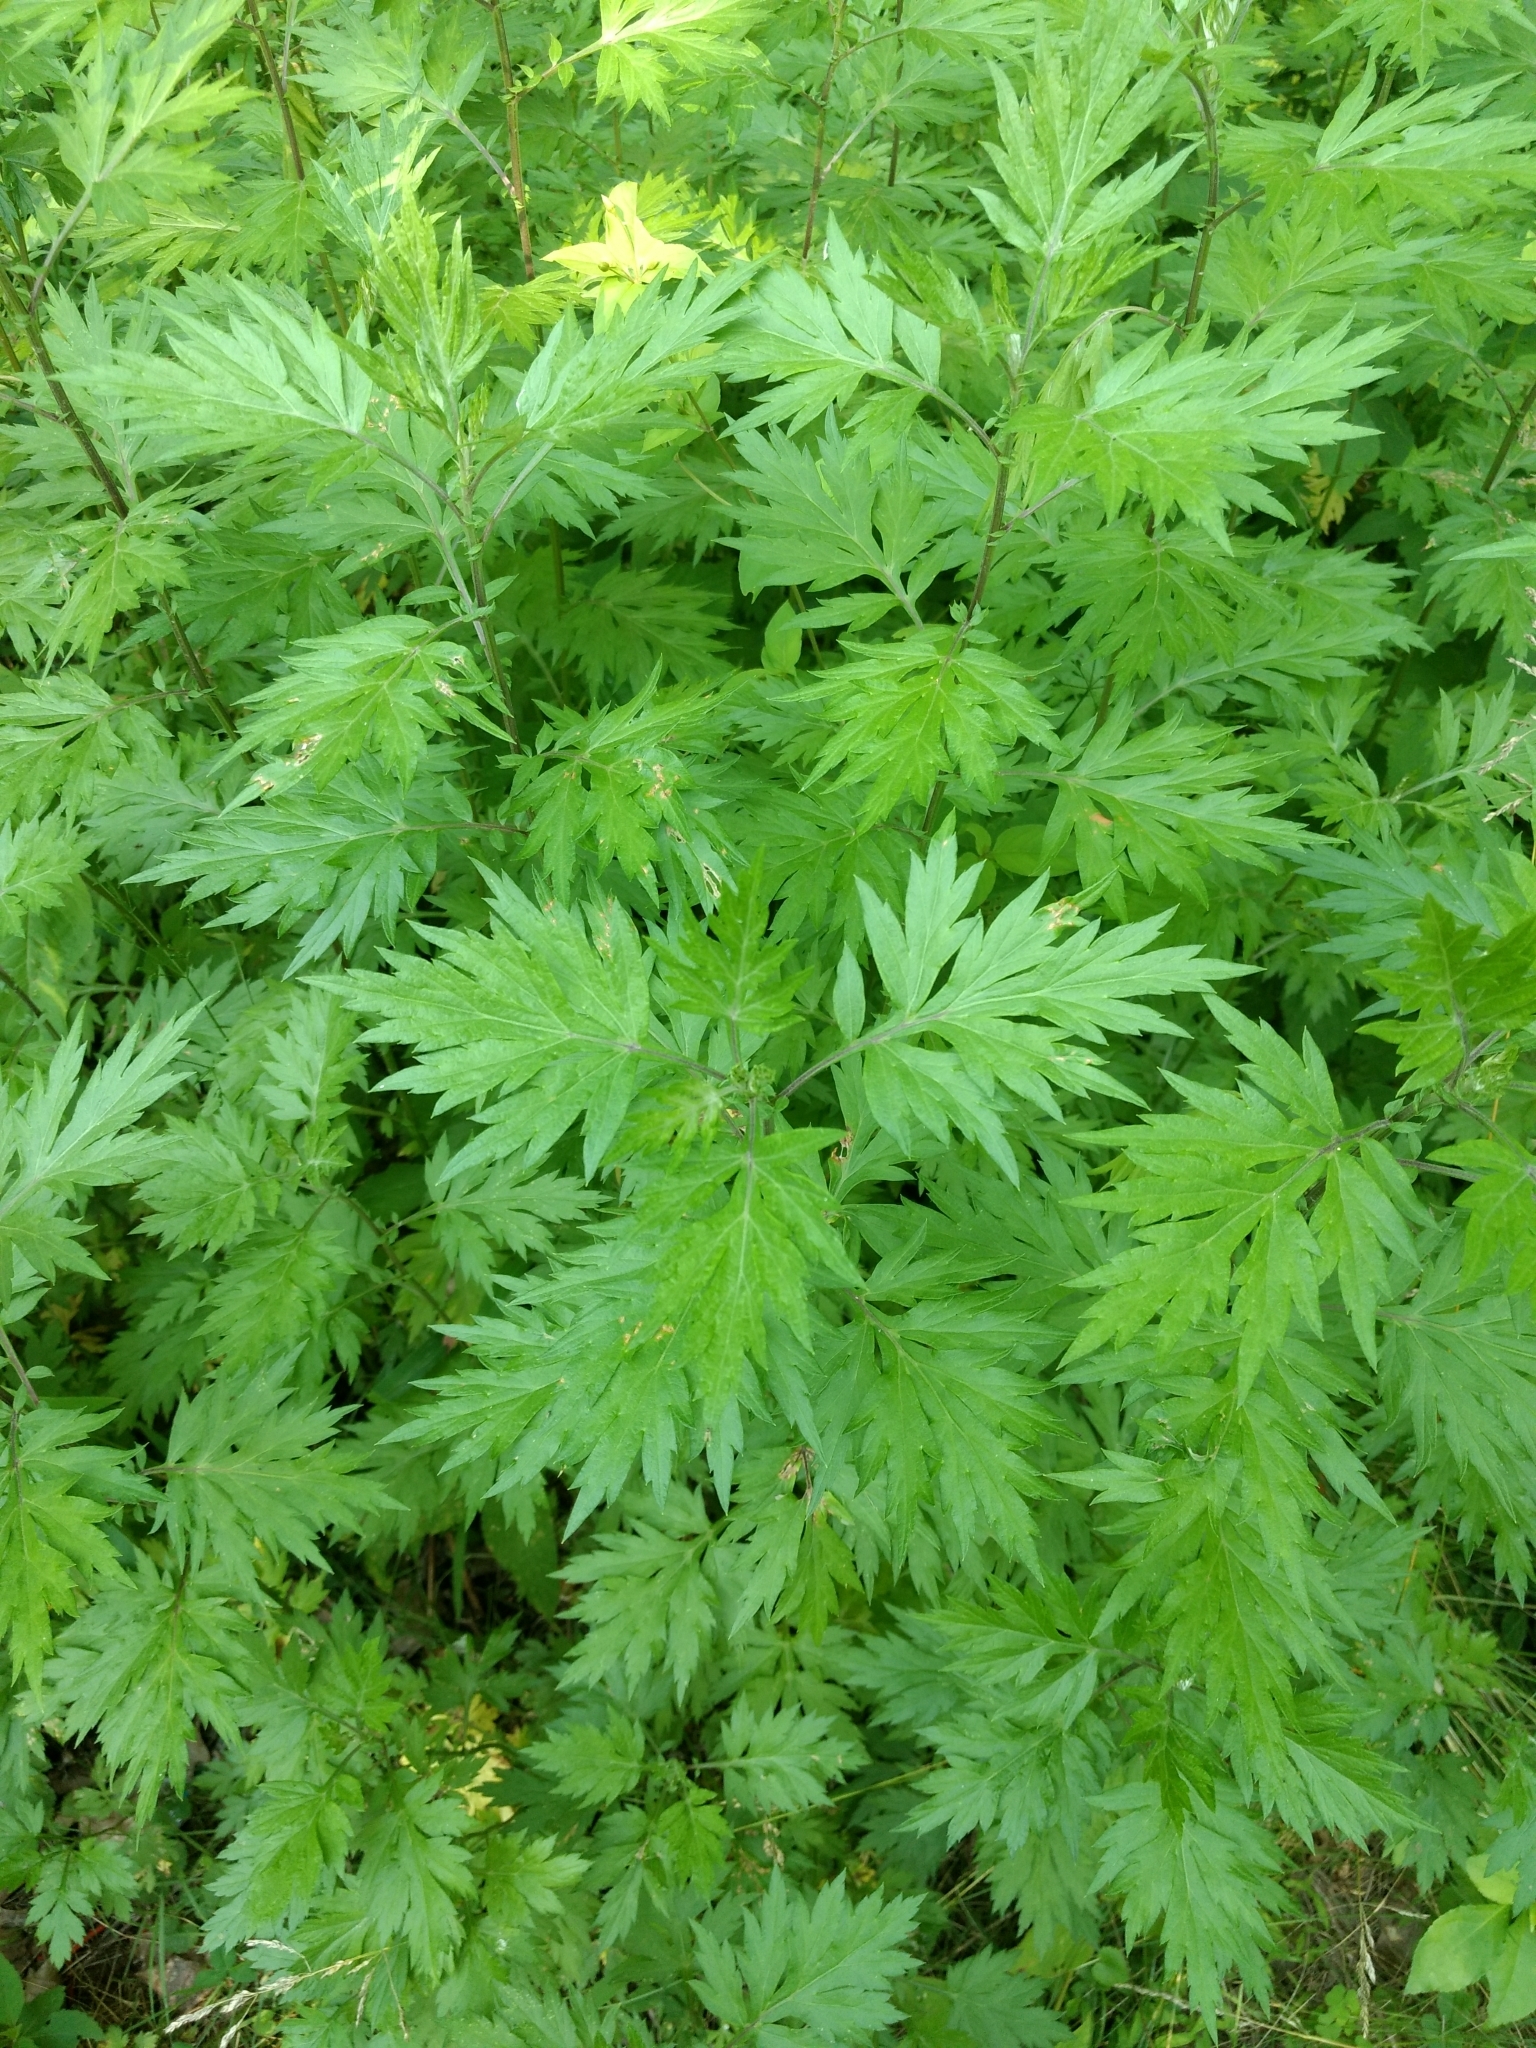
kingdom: Plantae
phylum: Tracheophyta
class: Magnoliopsida
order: Asterales
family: Asteraceae
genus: Artemisia
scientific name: Artemisia vulgaris
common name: Mugwort
